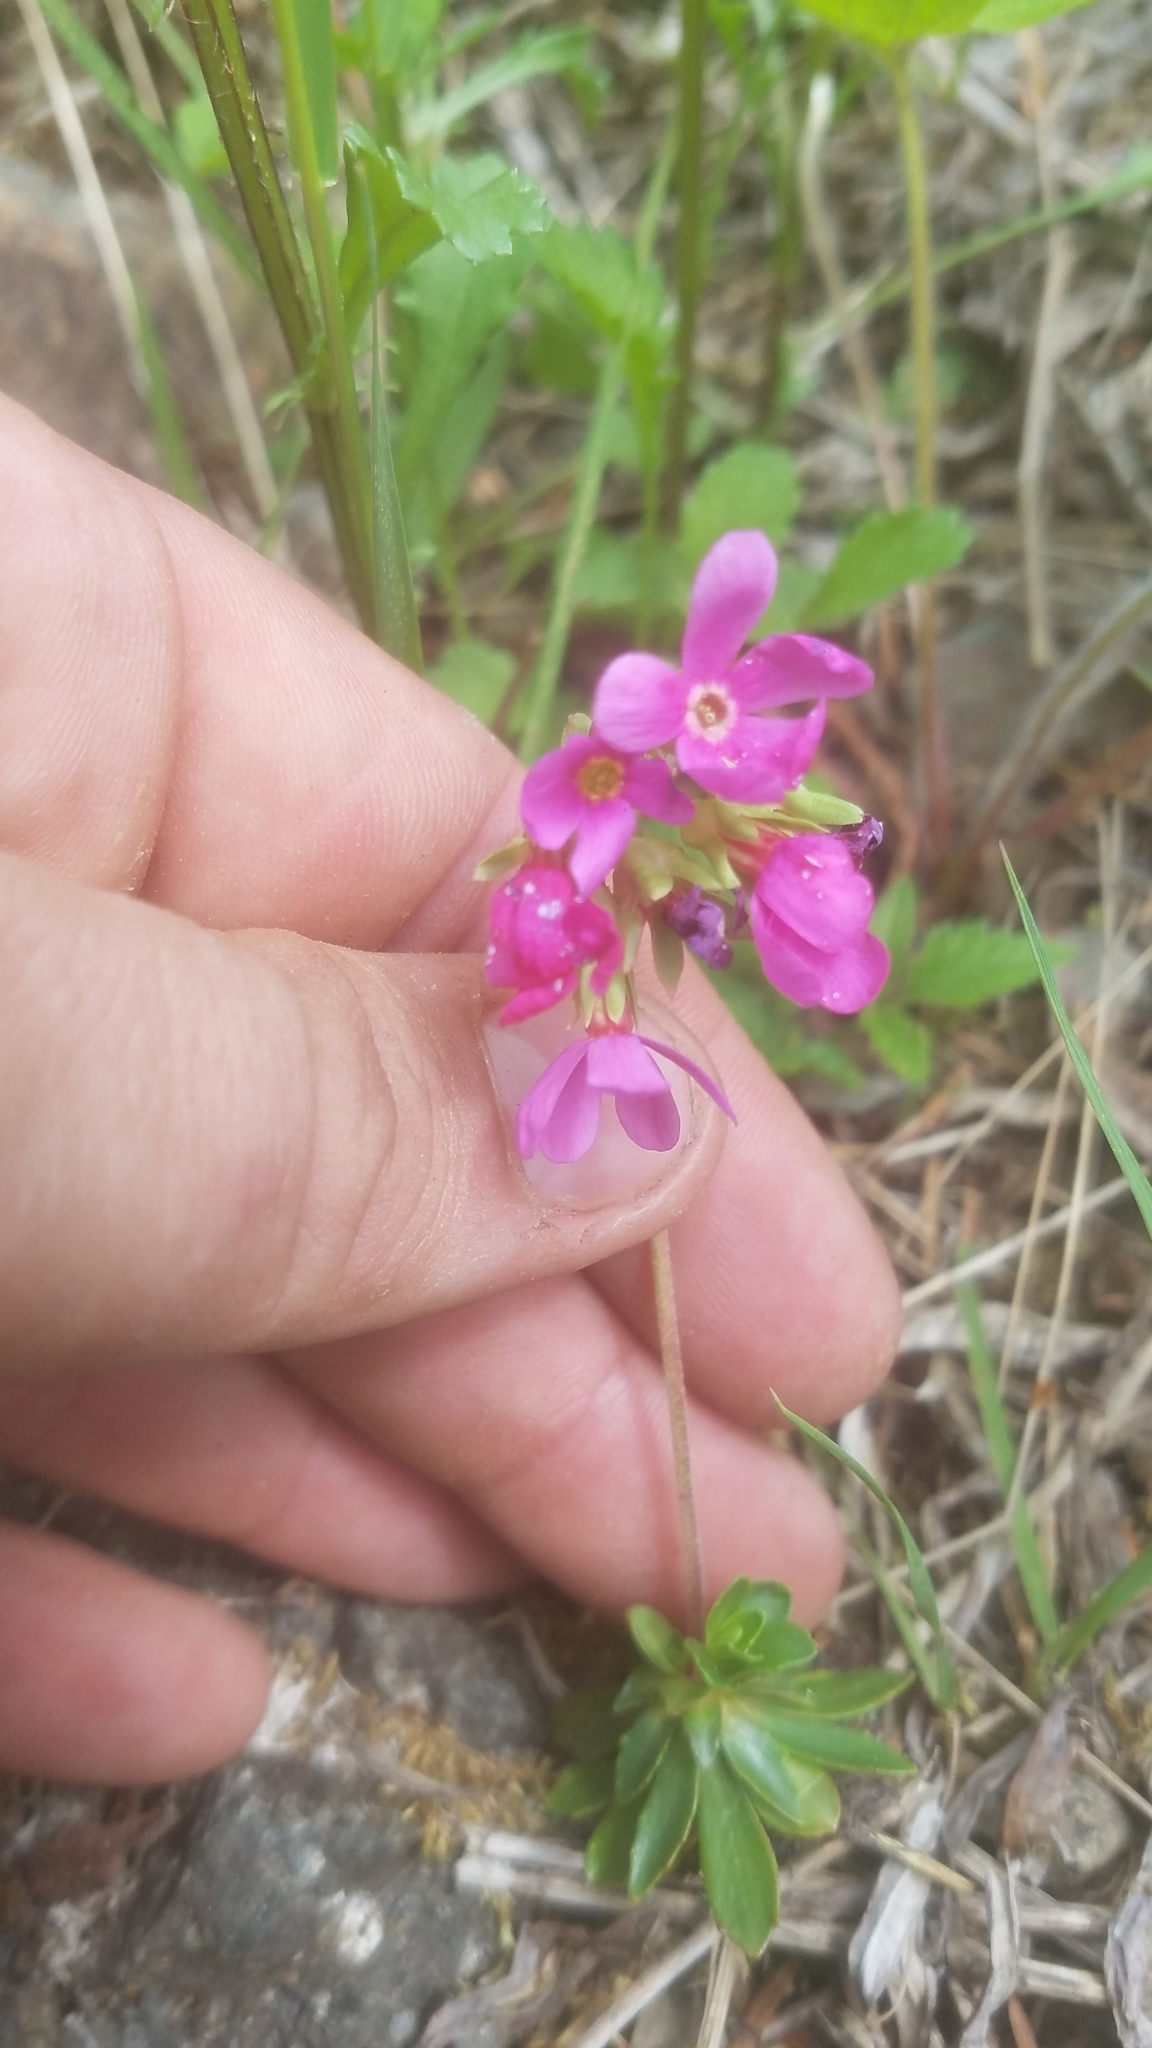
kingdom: Plantae
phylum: Tracheophyta
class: Magnoliopsida
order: Ericales
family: Primulaceae
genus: Androsace
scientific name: Androsace laevigata
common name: Cliff dwarf-primrose
